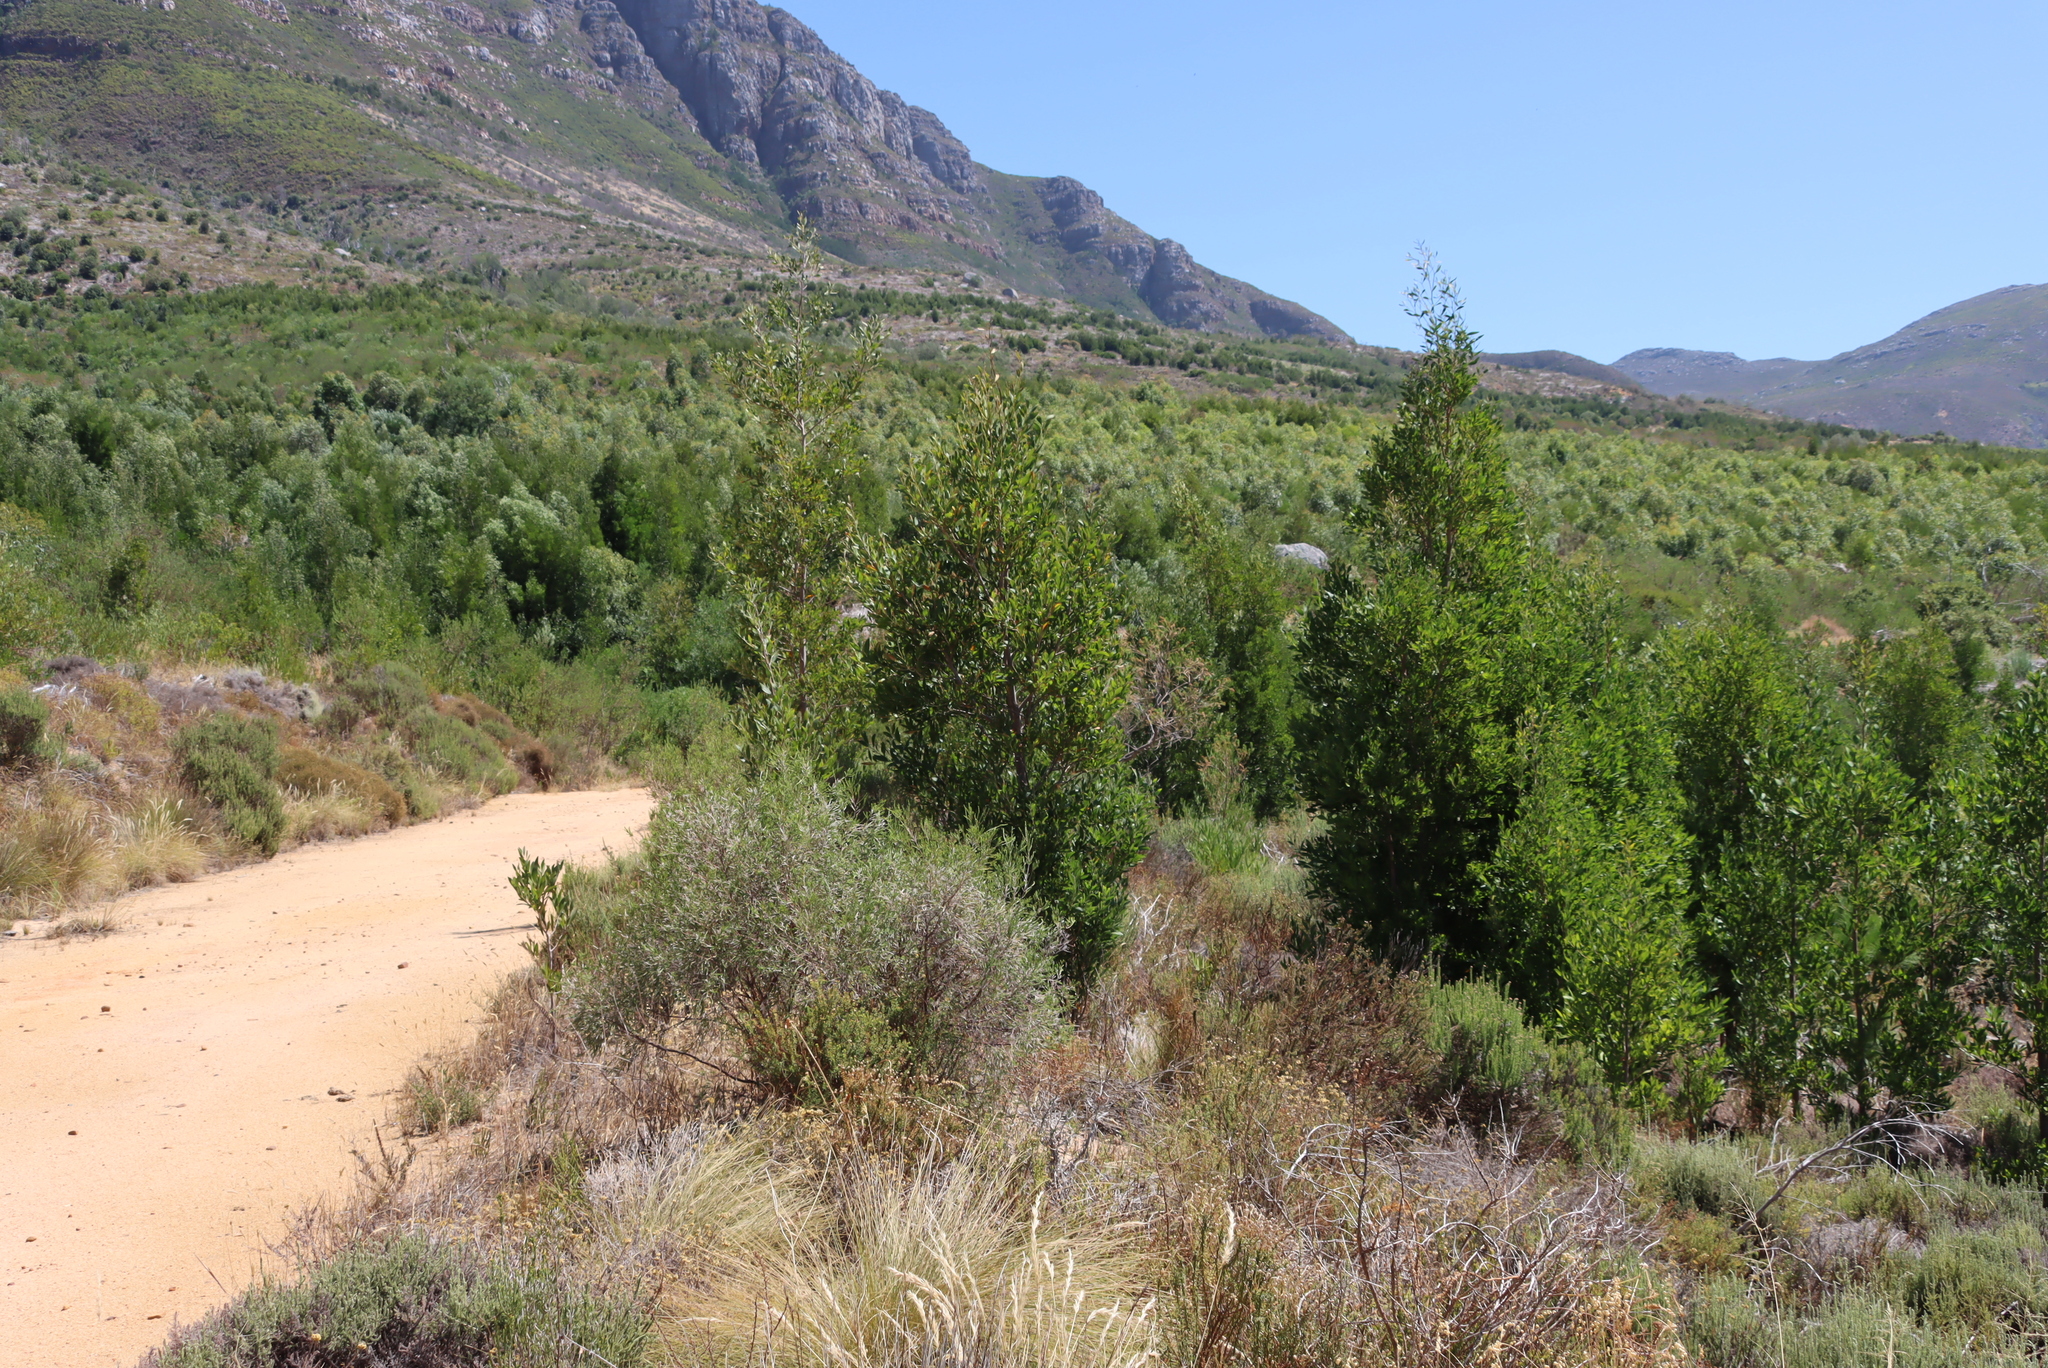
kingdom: Plantae
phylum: Tracheophyta
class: Magnoliopsida
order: Fabales
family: Fabaceae
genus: Acacia
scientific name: Acacia melanoxylon
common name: Blackwood
